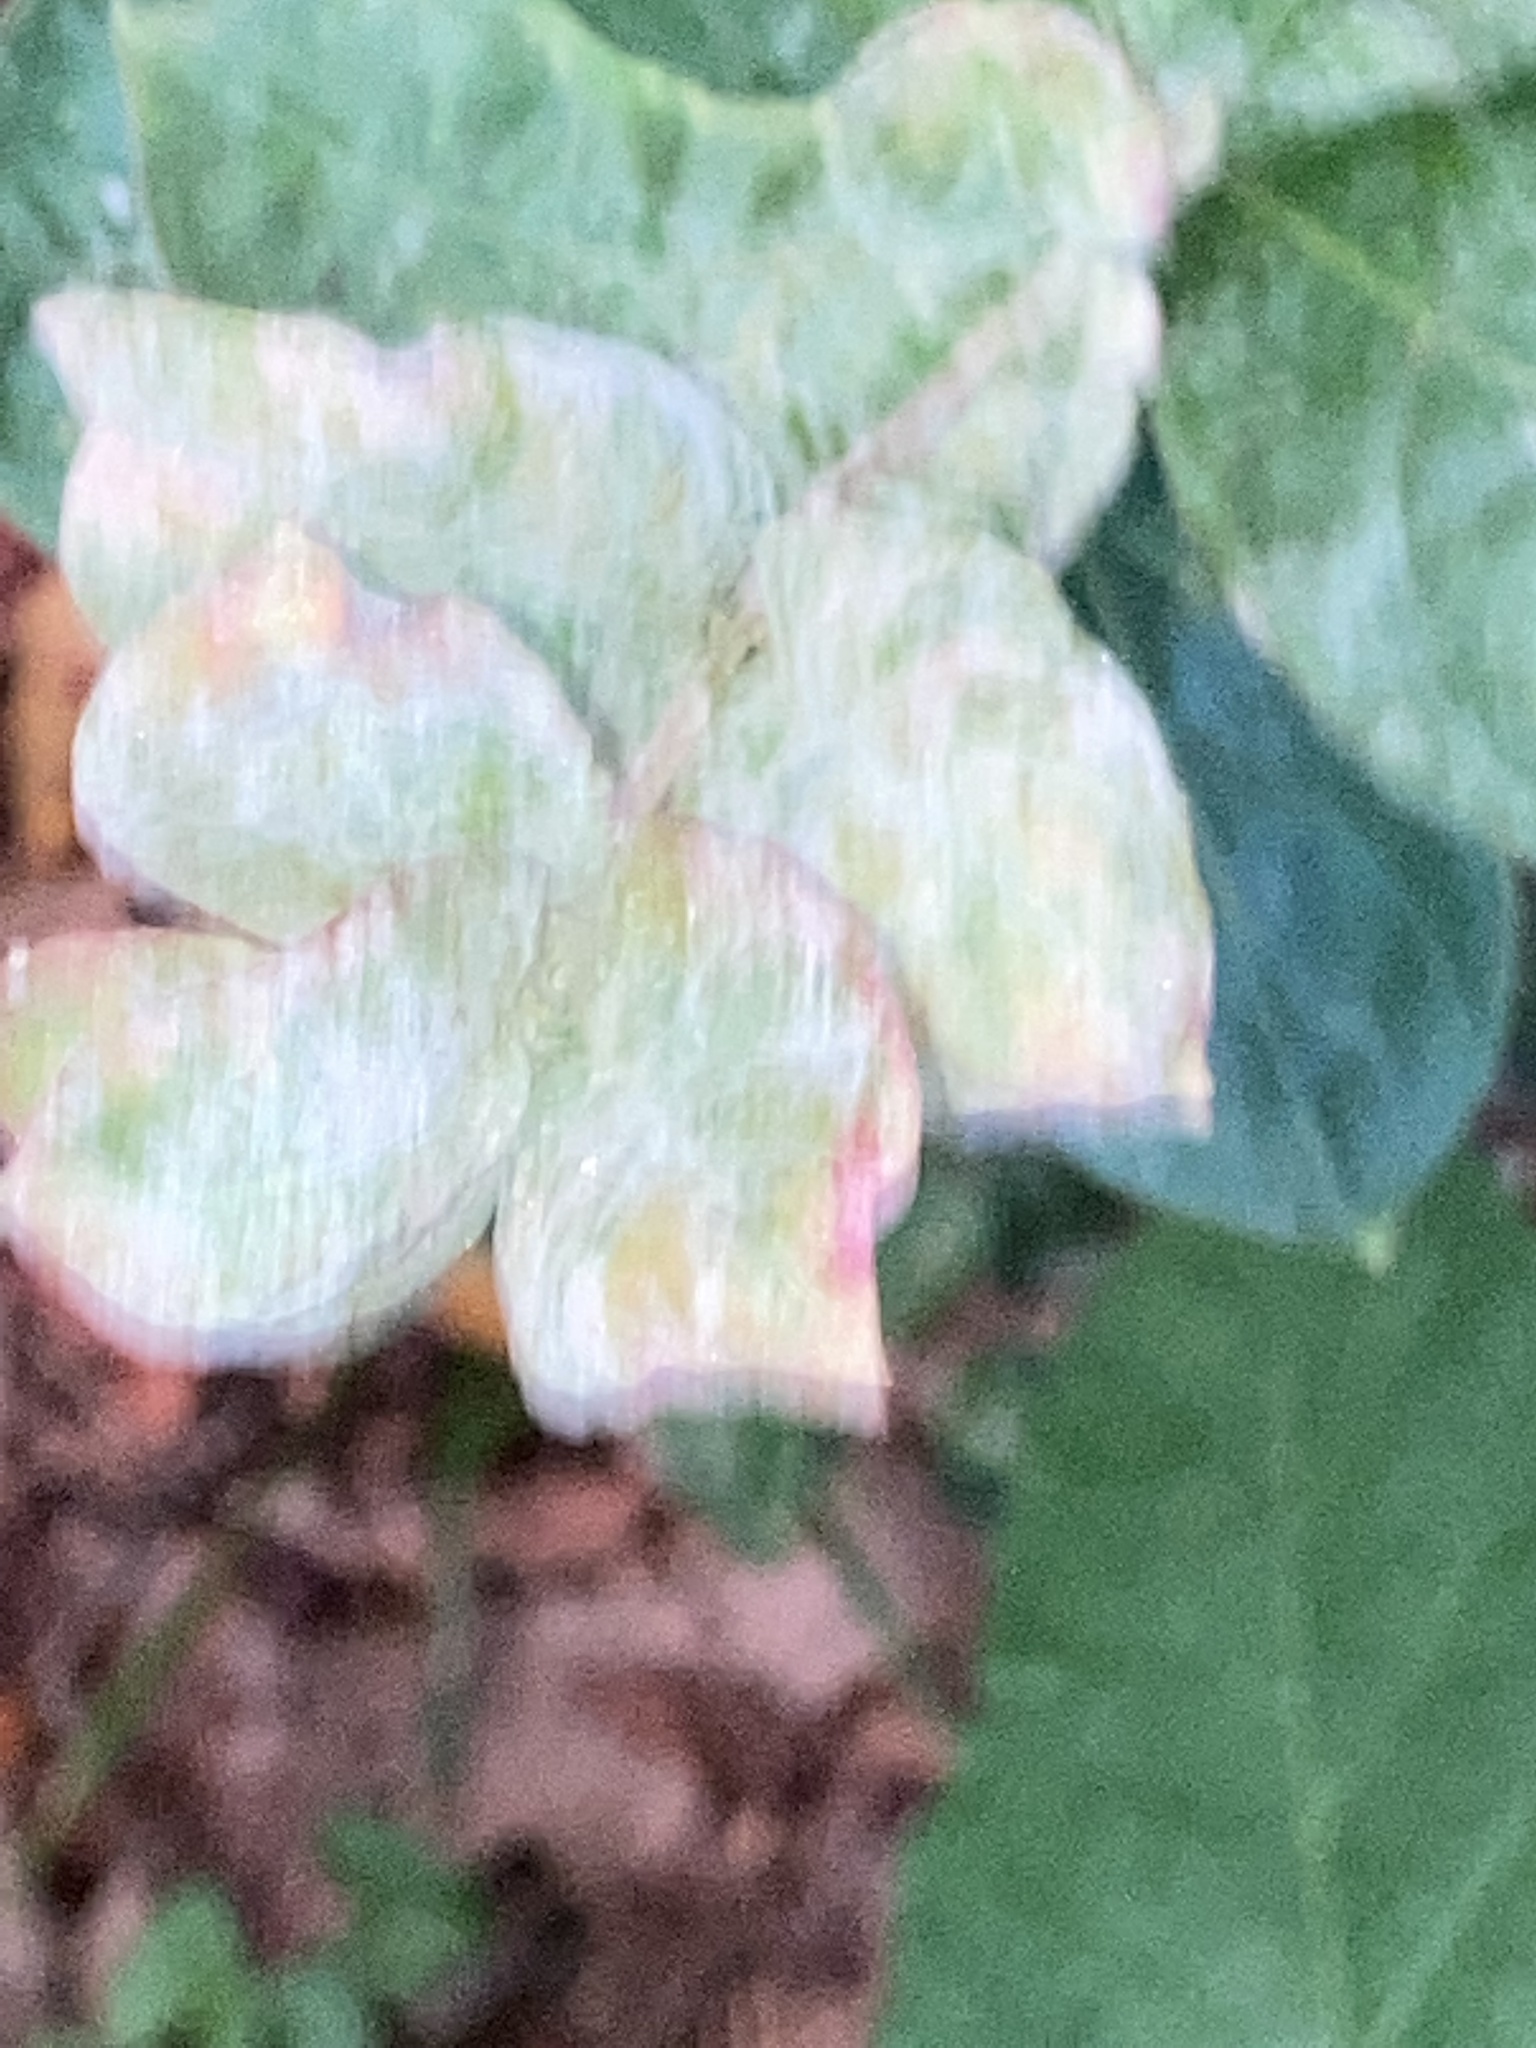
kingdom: Fungi
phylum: Ascomycota
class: Leotiomycetes
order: Helotiales
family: Erysiphaceae
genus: Erysiphe
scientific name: Erysiphe australiana
